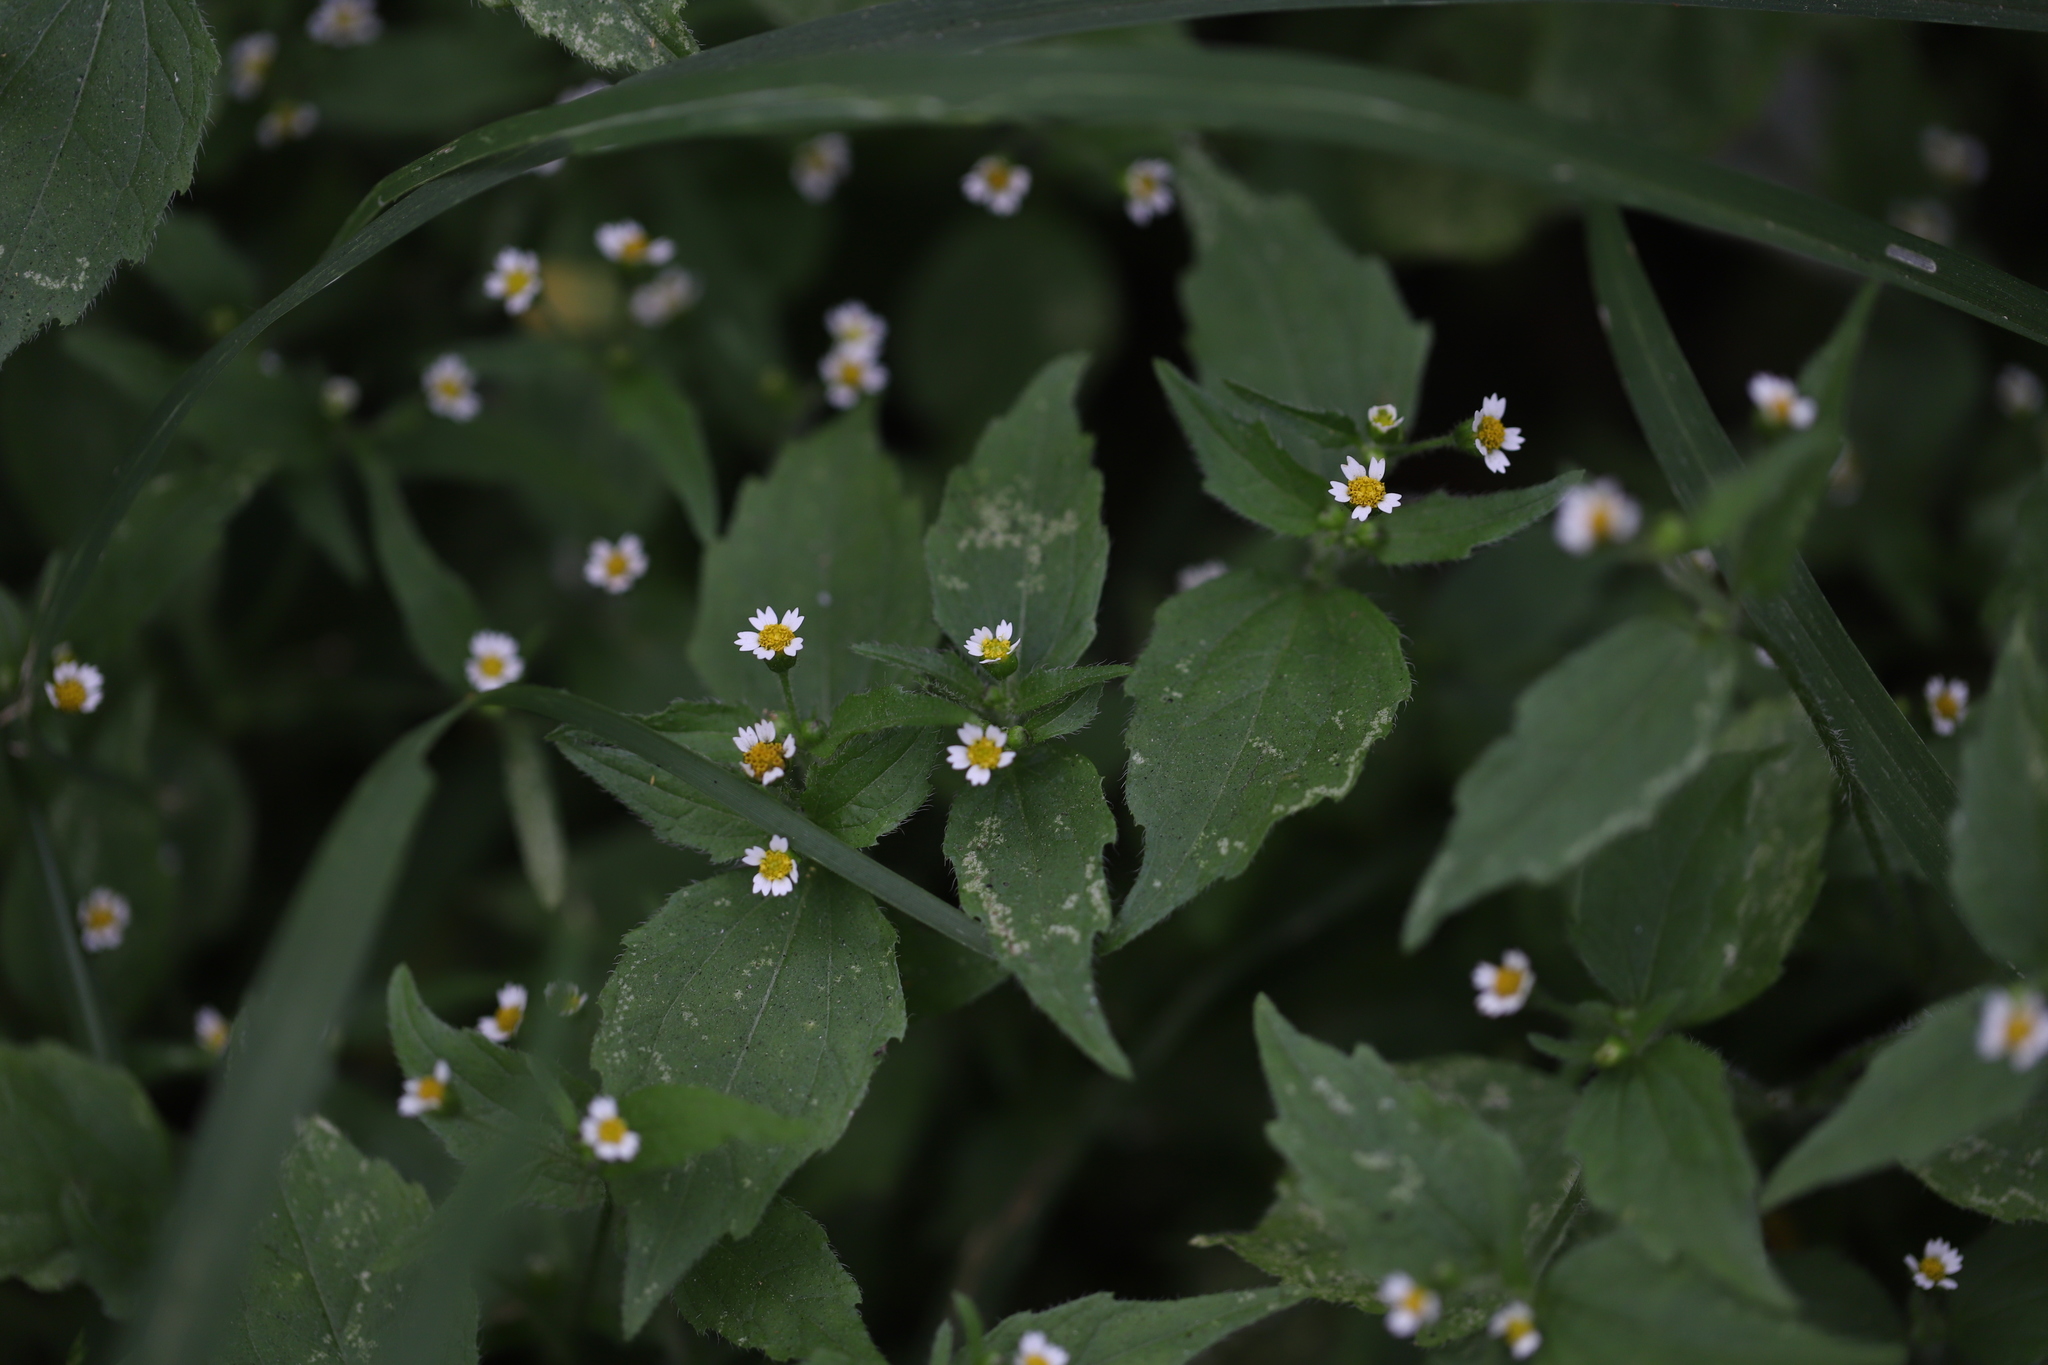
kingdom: Plantae
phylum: Tracheophyta
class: Magnoliopsida
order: Asterales
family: Asteraceae
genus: Galinsoga
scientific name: Galinsoga quadriradiata
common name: Shaggy soldier
